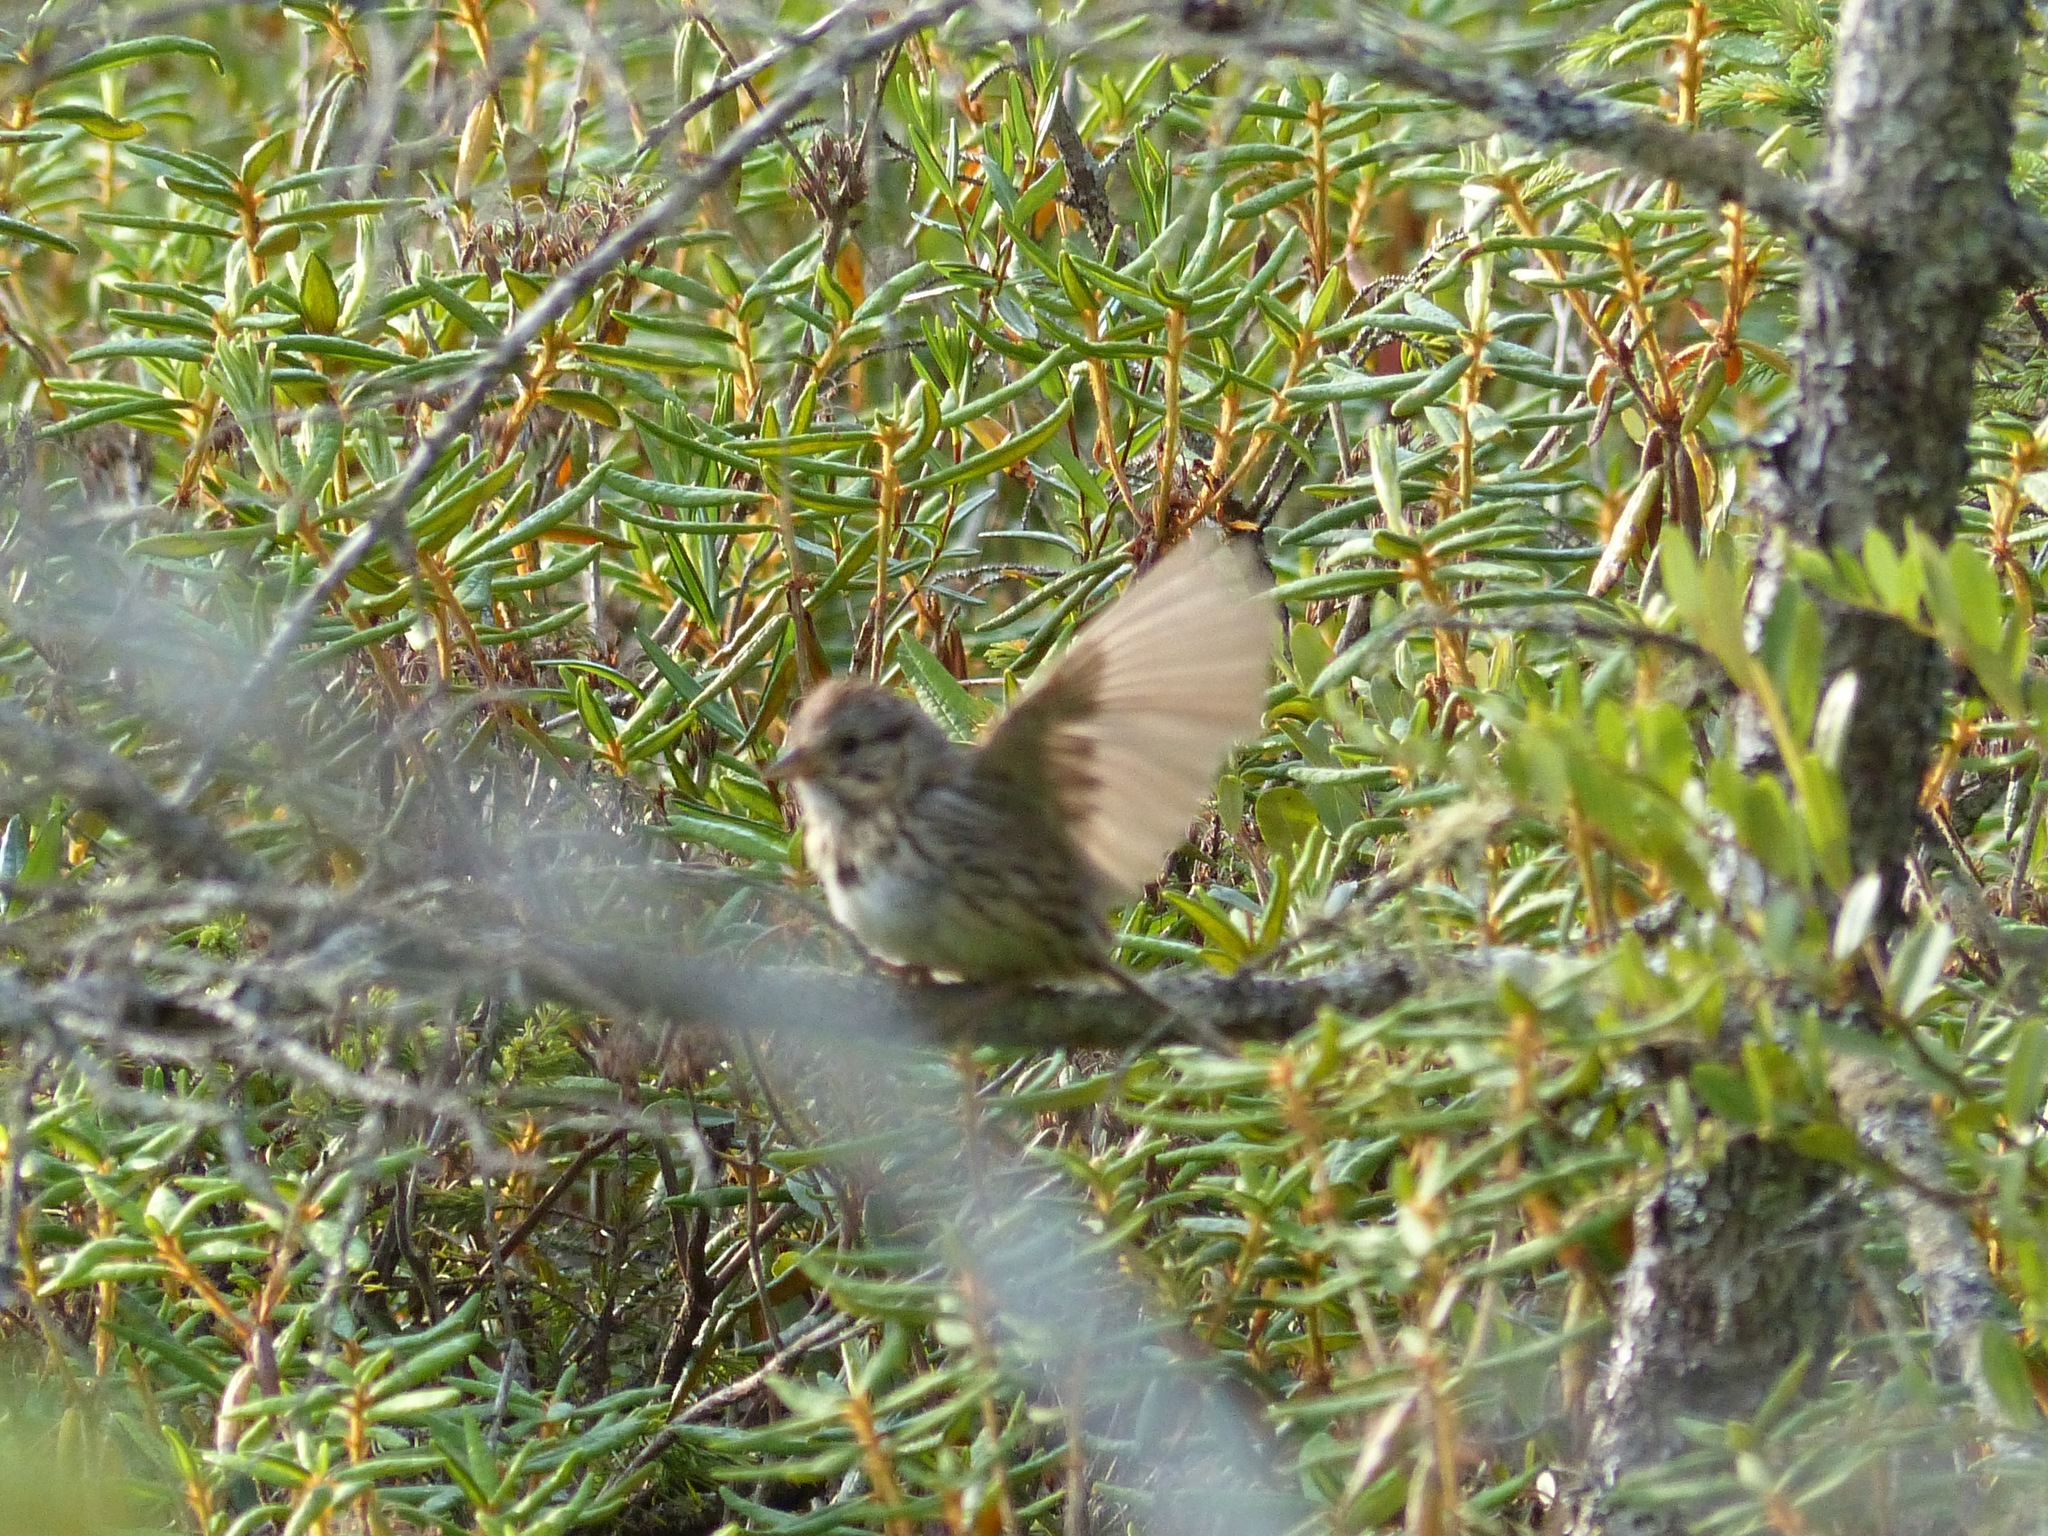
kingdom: Plantae
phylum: Tracheophyta
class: Magnoliopsida
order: Ericales
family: Ericaceae
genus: Rhododendron
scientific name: Rhododendron groenlandicum
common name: Bog labrador tea
